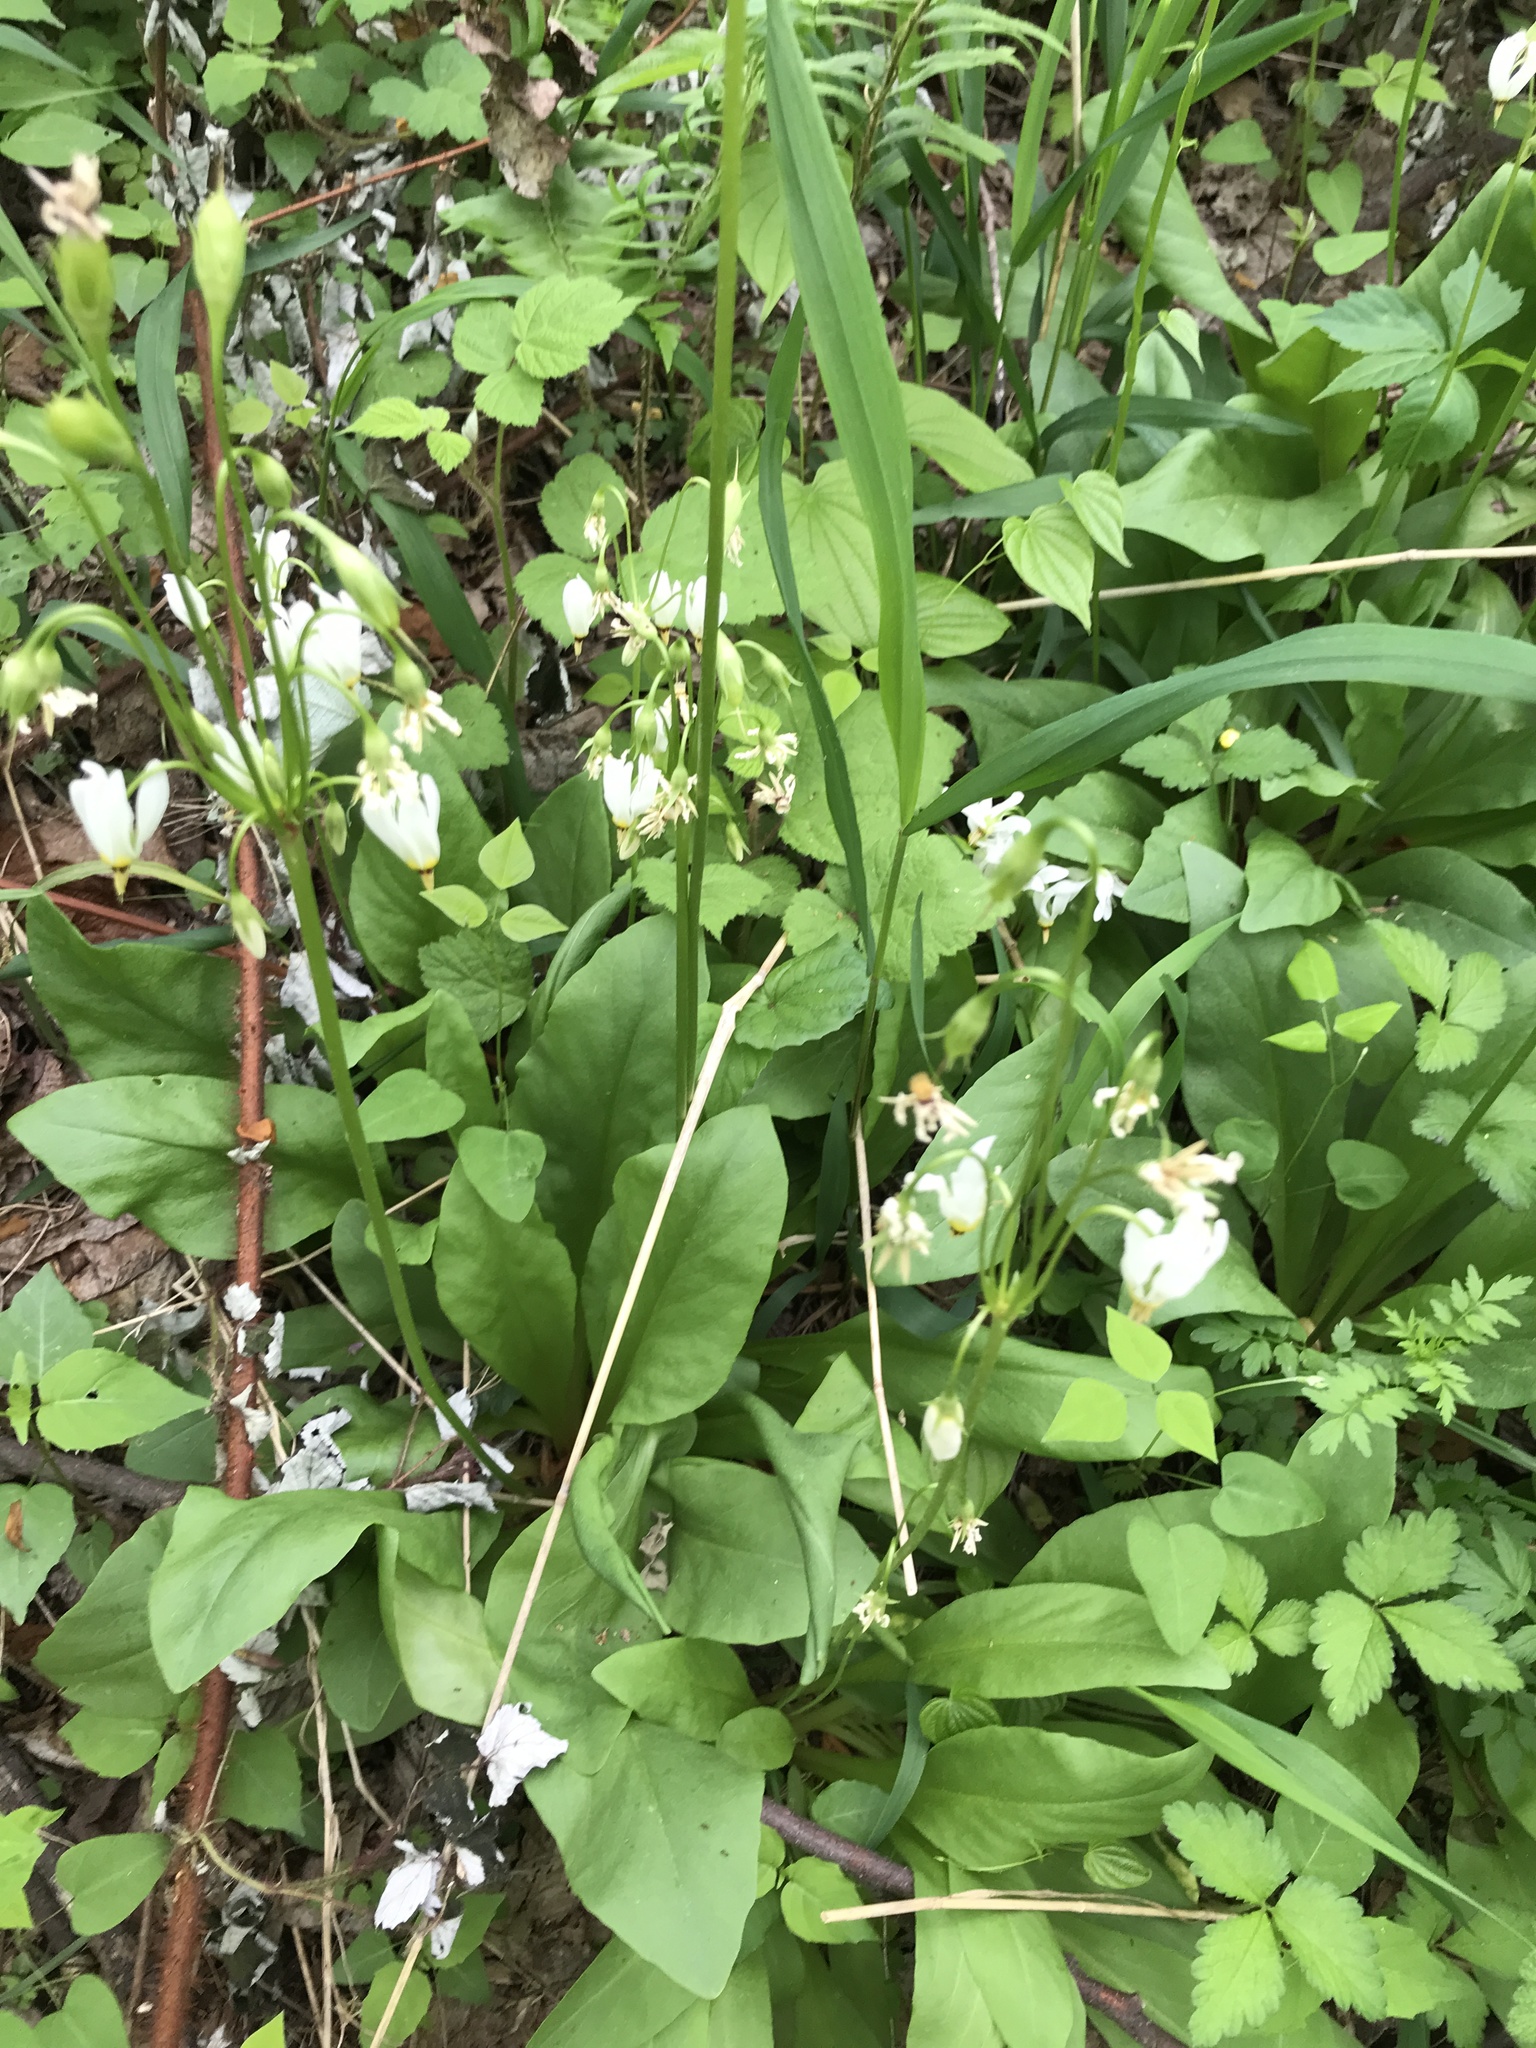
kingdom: Plantae
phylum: Tracheophyta
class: Magnoliopsida
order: Ericales
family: Primulaceae
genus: Dodecatheon
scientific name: Dodecatheon meadia
